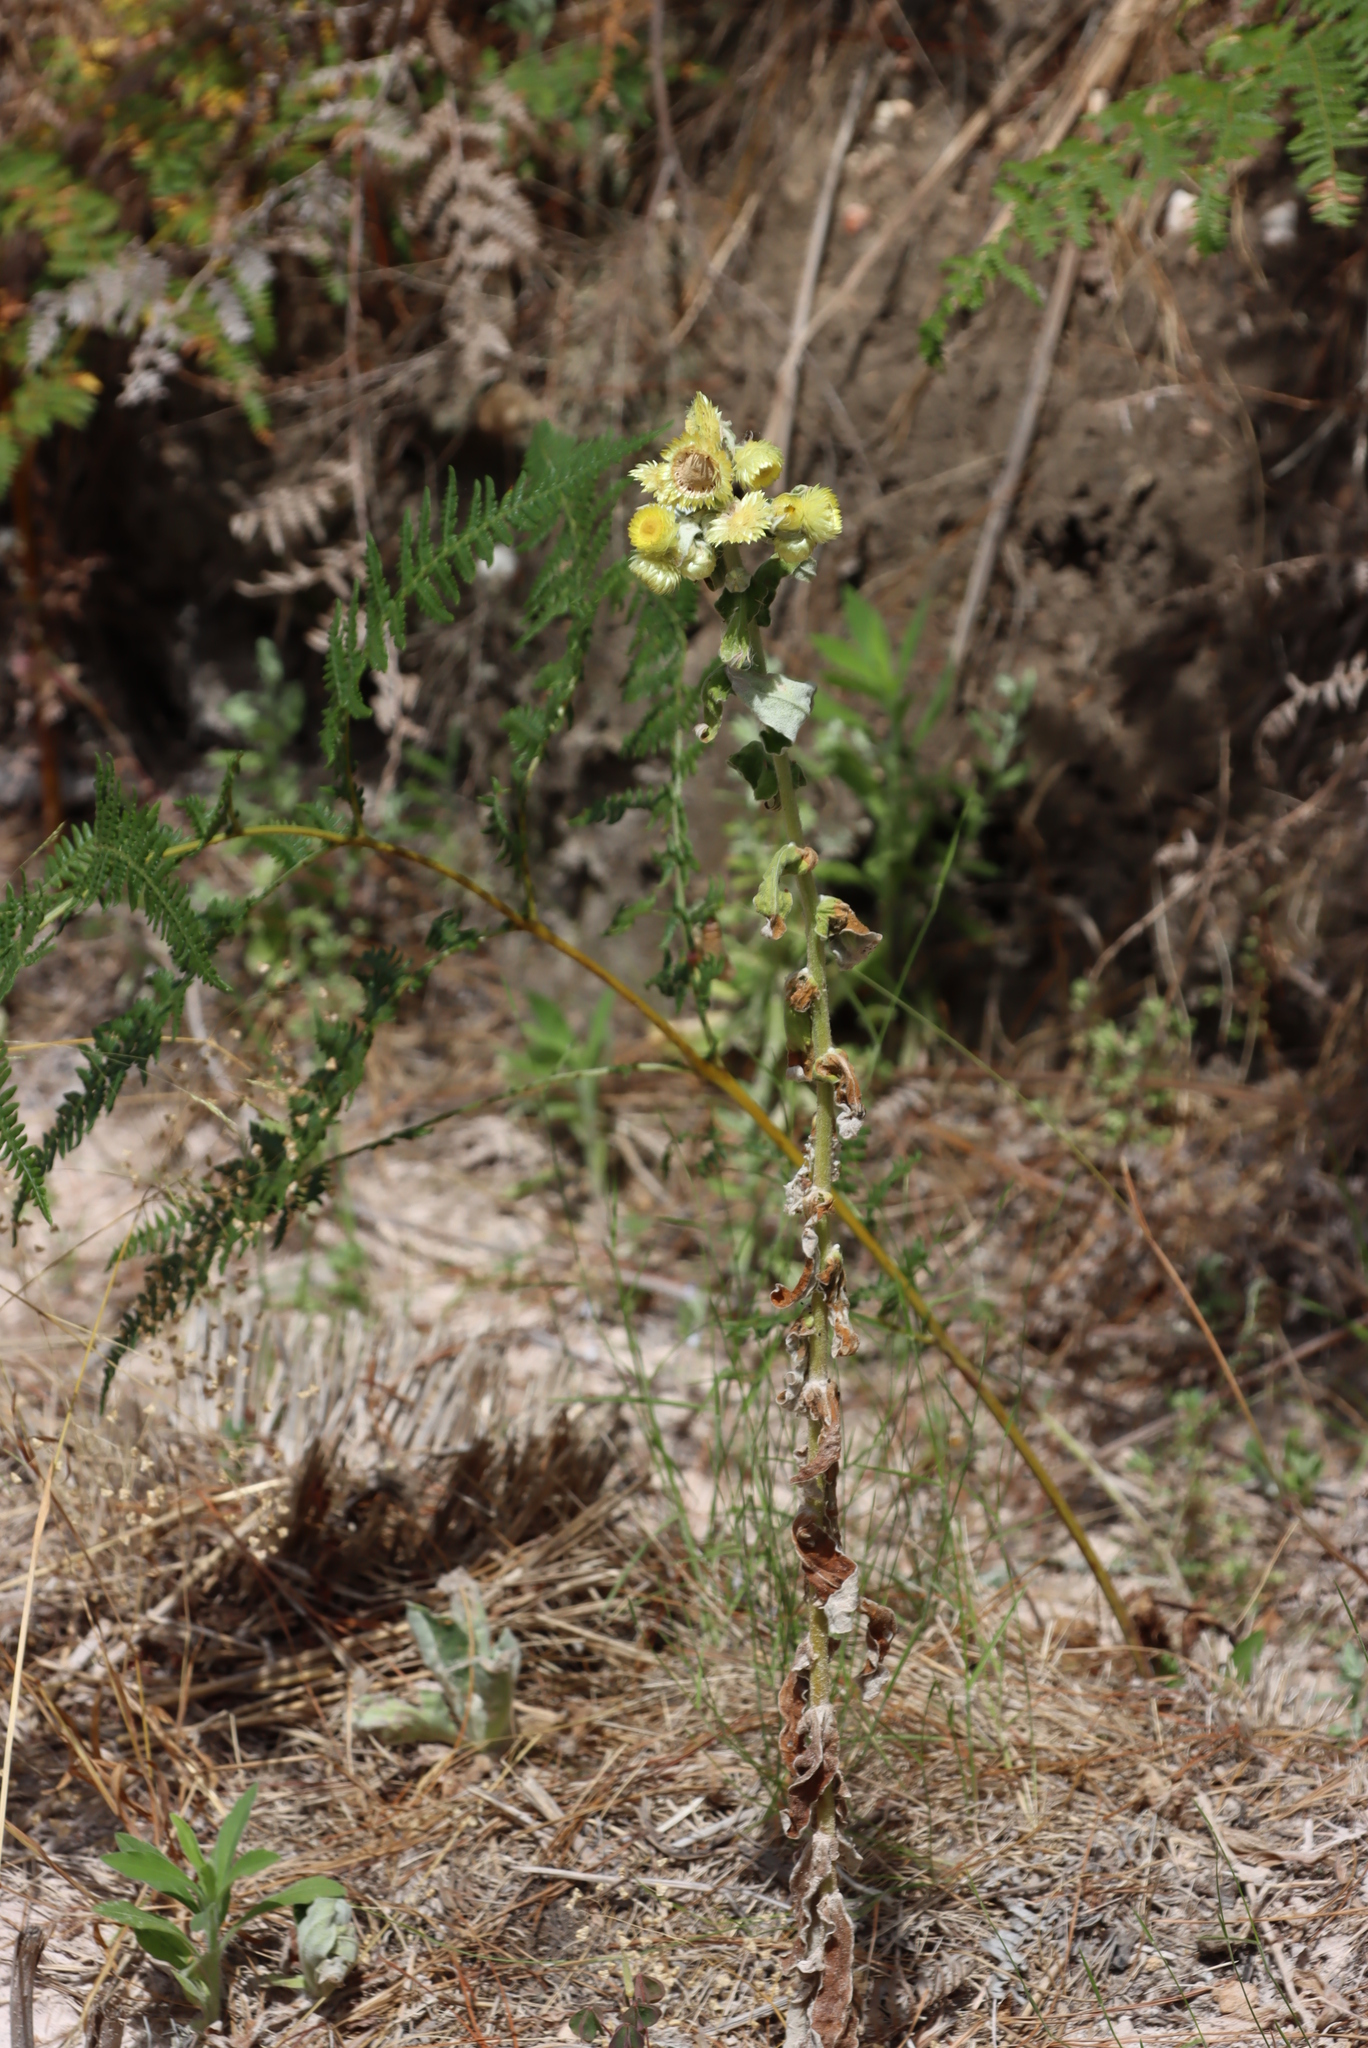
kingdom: Plantae
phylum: Tracheophyta
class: Magnoliopsida
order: Asterales
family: Asteraceae
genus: Helichrysum
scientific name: Helichrysum foetidum
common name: Stinking everlasting
